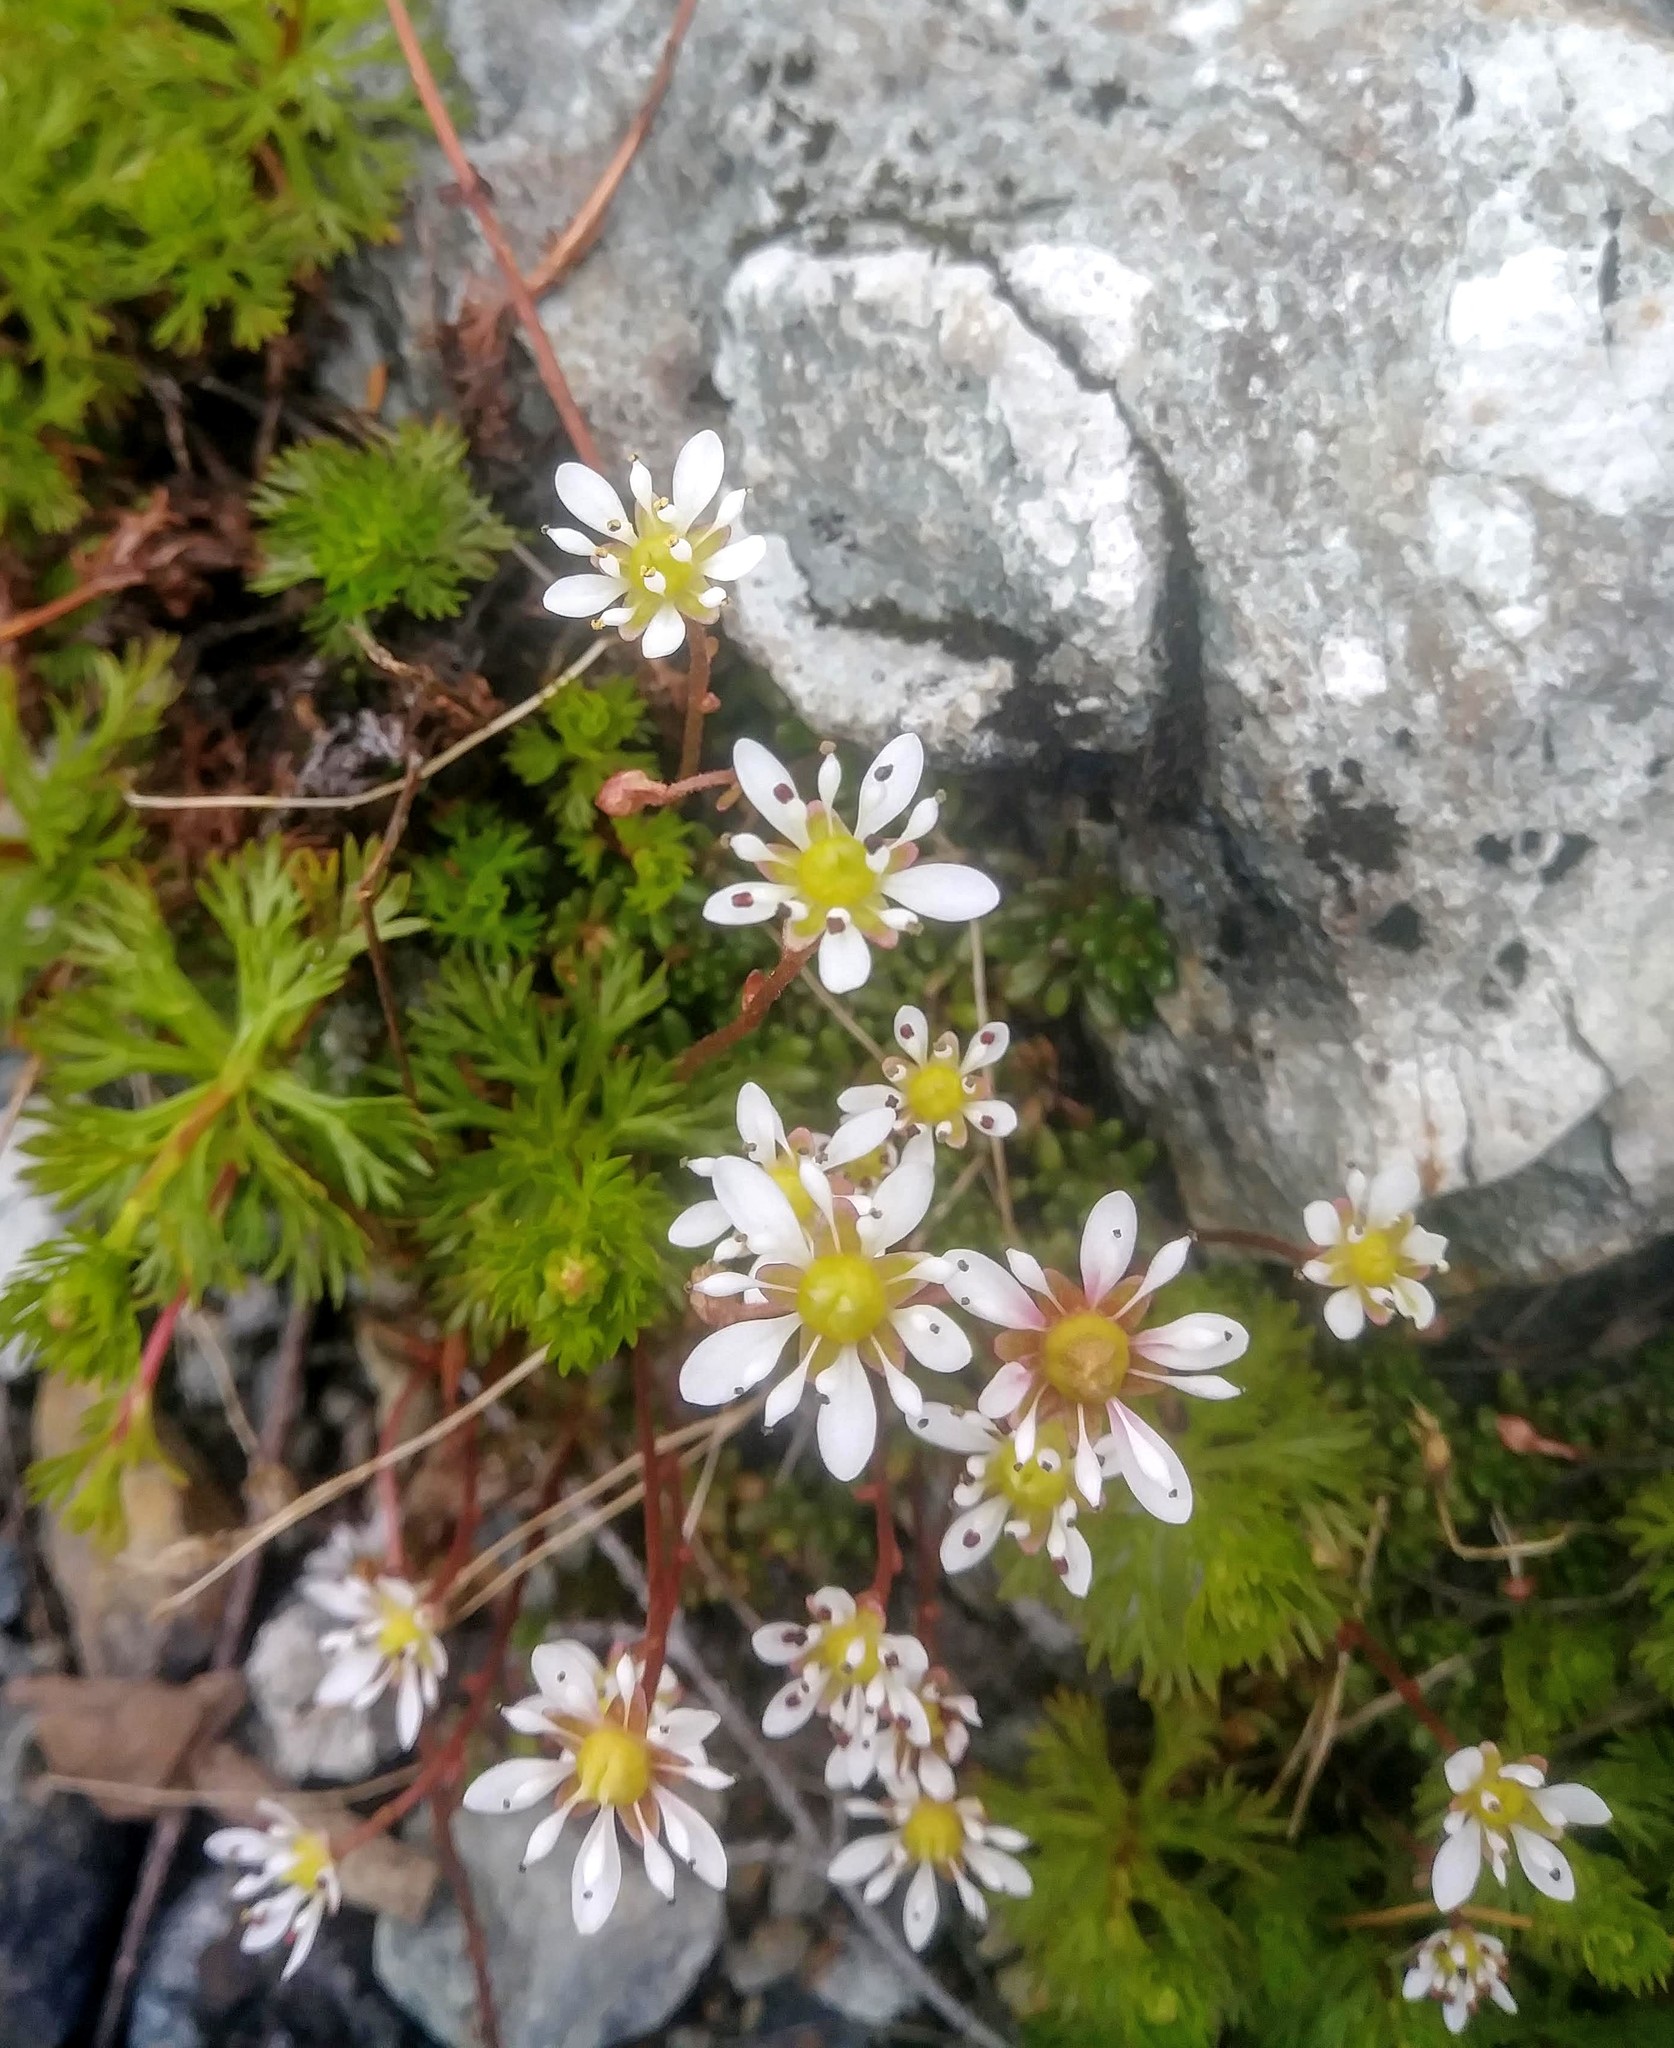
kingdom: Plantae
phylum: Tracheophyta
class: Magnoliopsida
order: Saxifragales
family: Saxifragaceae
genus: Micranthes
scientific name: Micranthes tolmiei
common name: Tolmie's saxifrage
